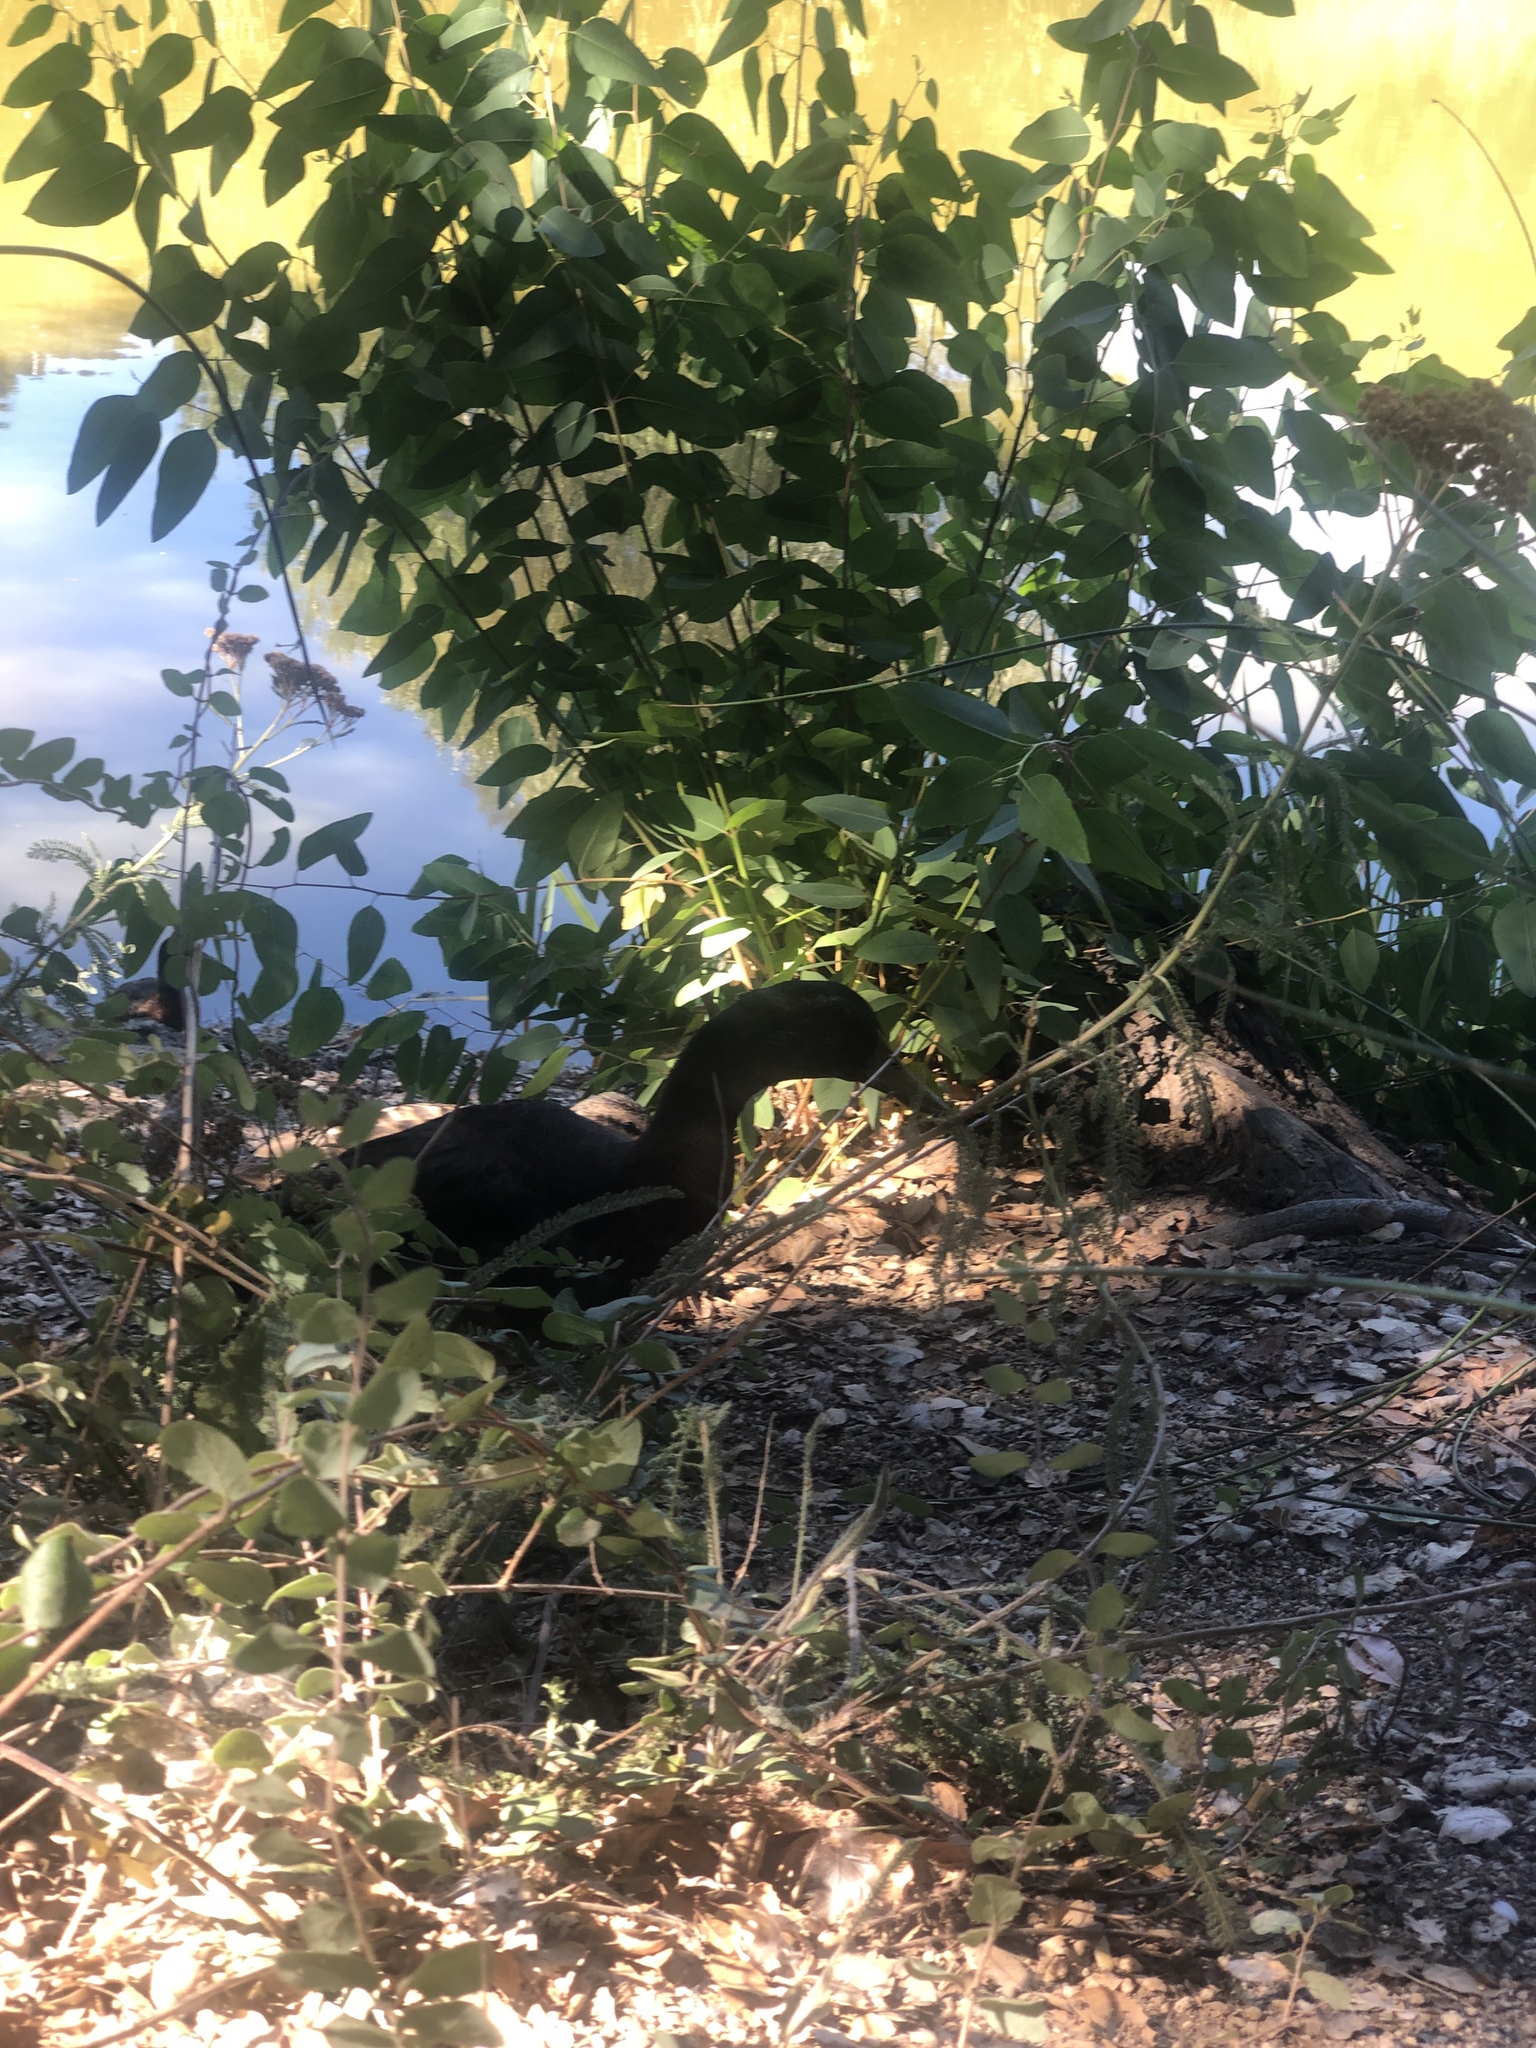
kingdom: Animalia
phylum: Chordata
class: Aves
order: Anseriformes
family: Anatidae
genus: Anas
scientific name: Anas platyrhynchos
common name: Mallard
